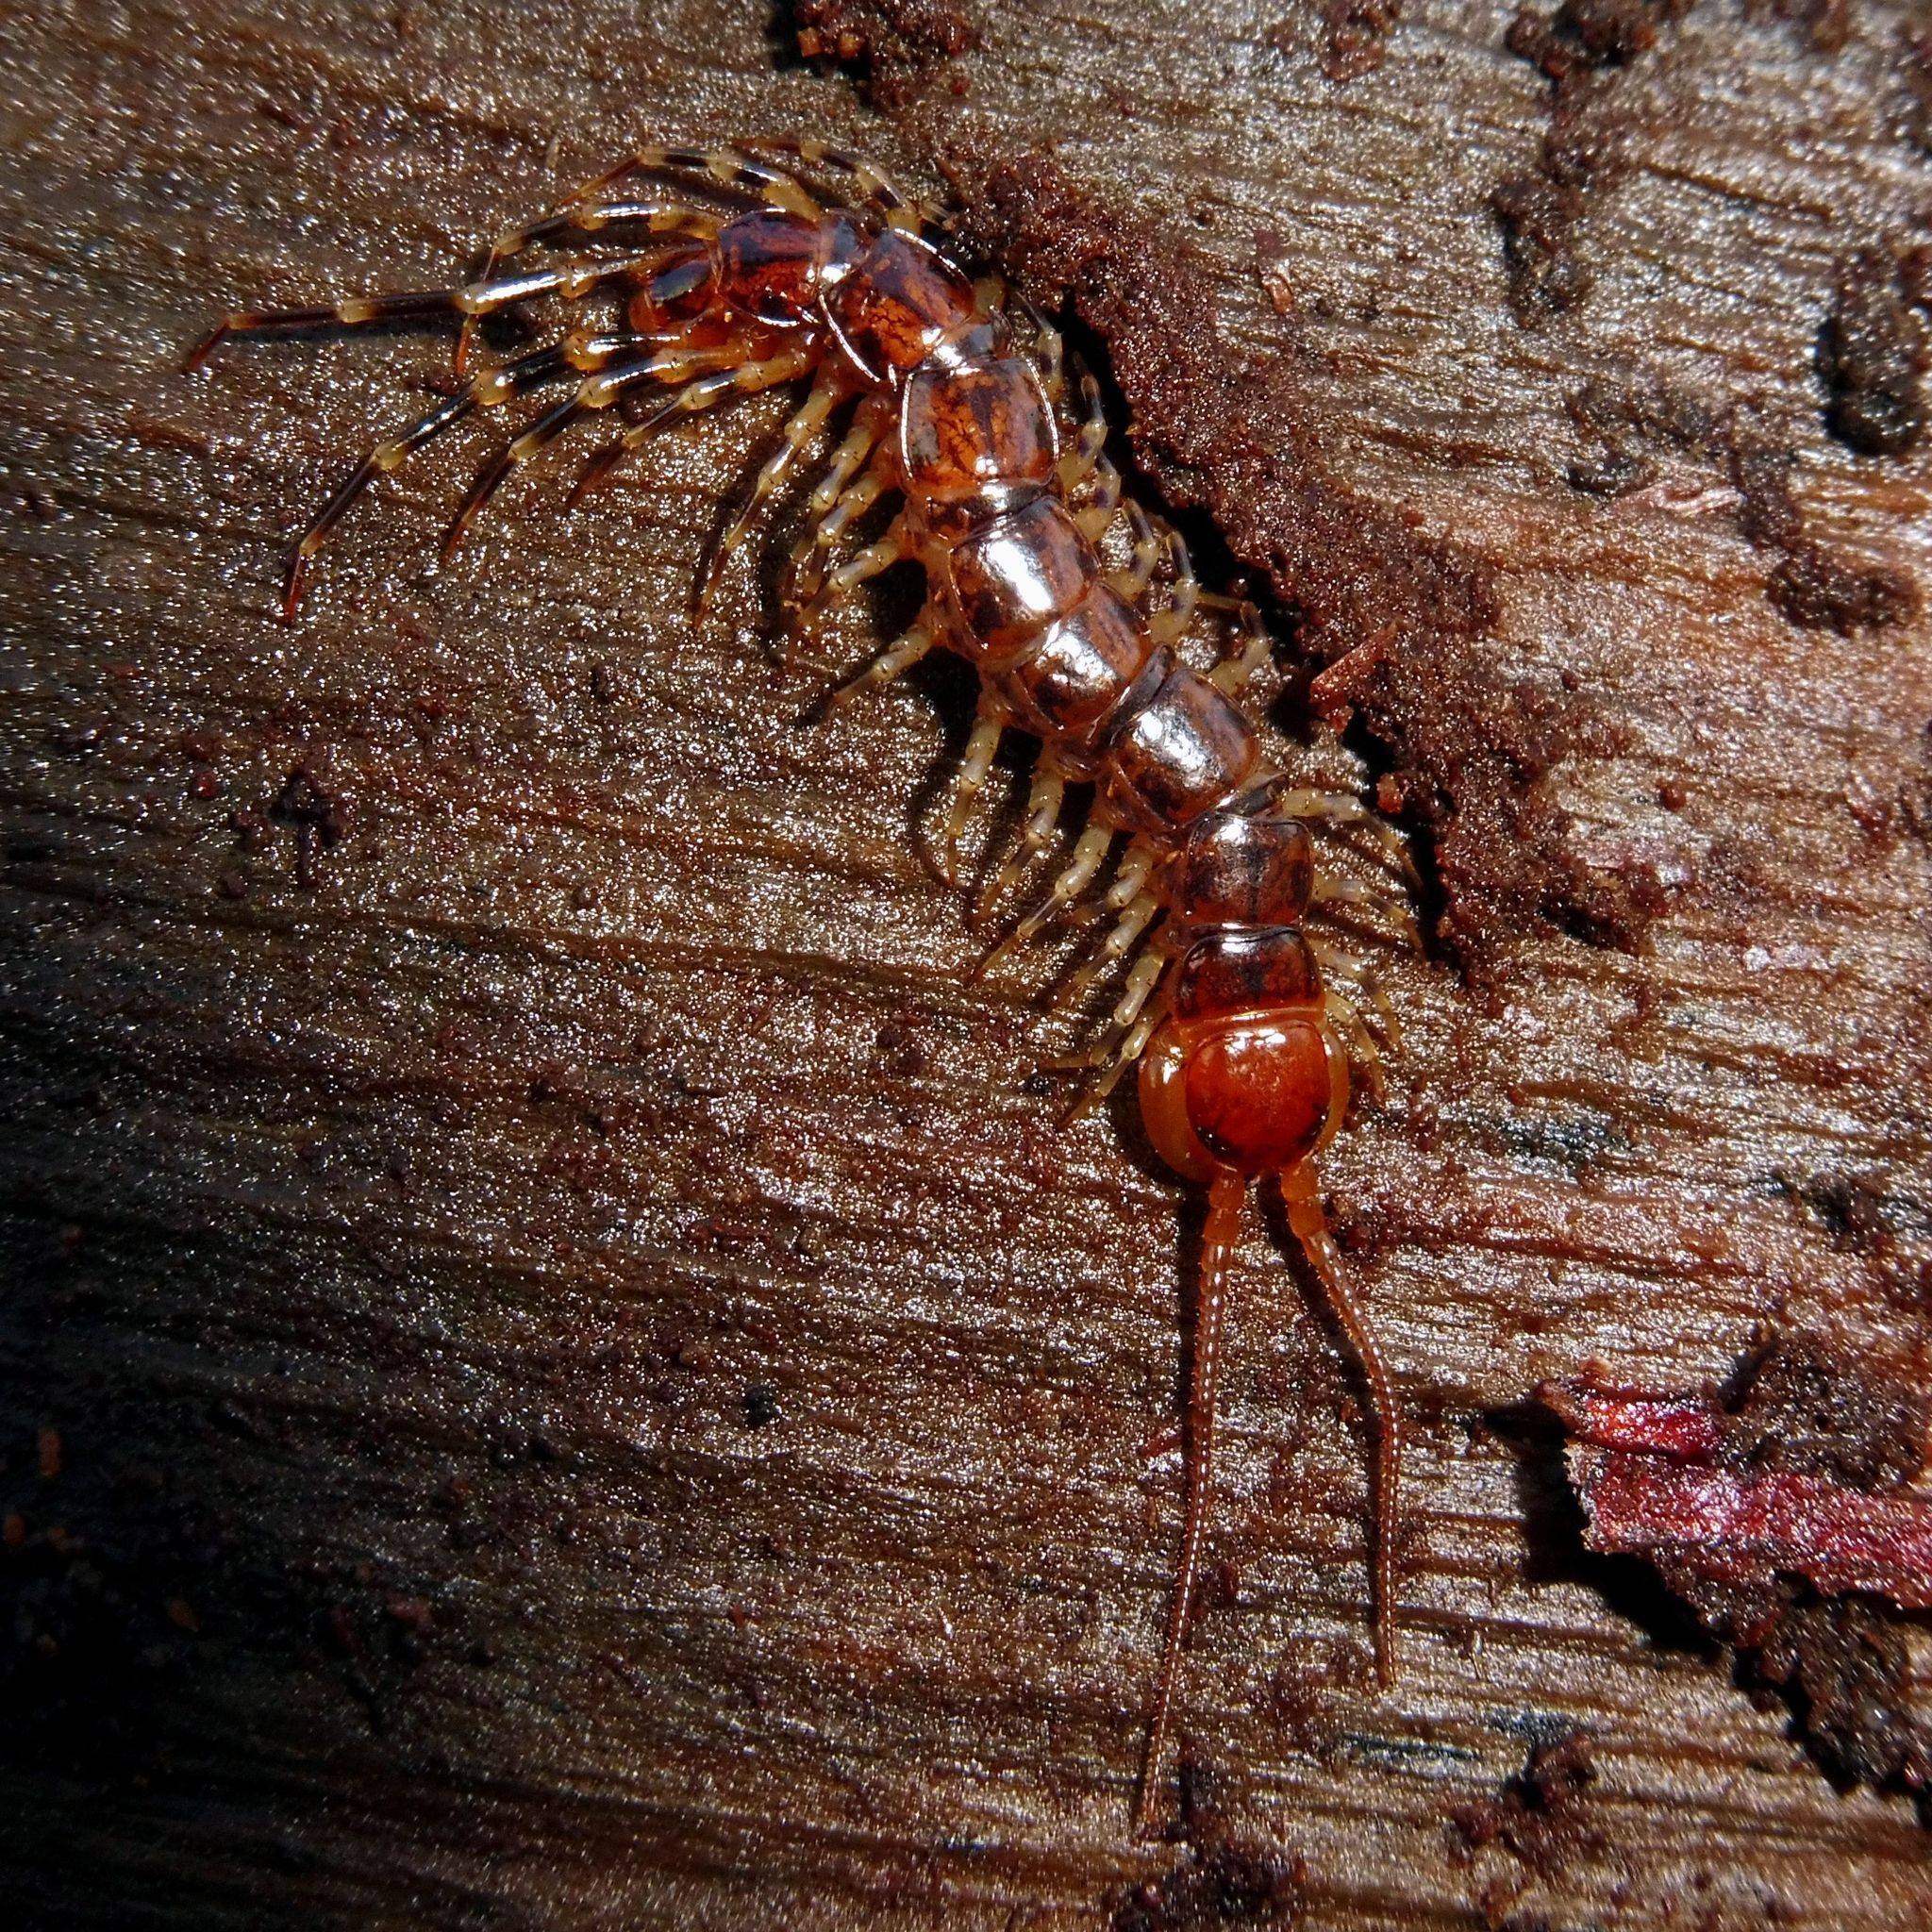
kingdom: Animalia
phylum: Arthropoda
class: Chilopoda
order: Lithobiomorpha
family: Lithobiidae
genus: Lithobius
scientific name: Lithobius variegatus
